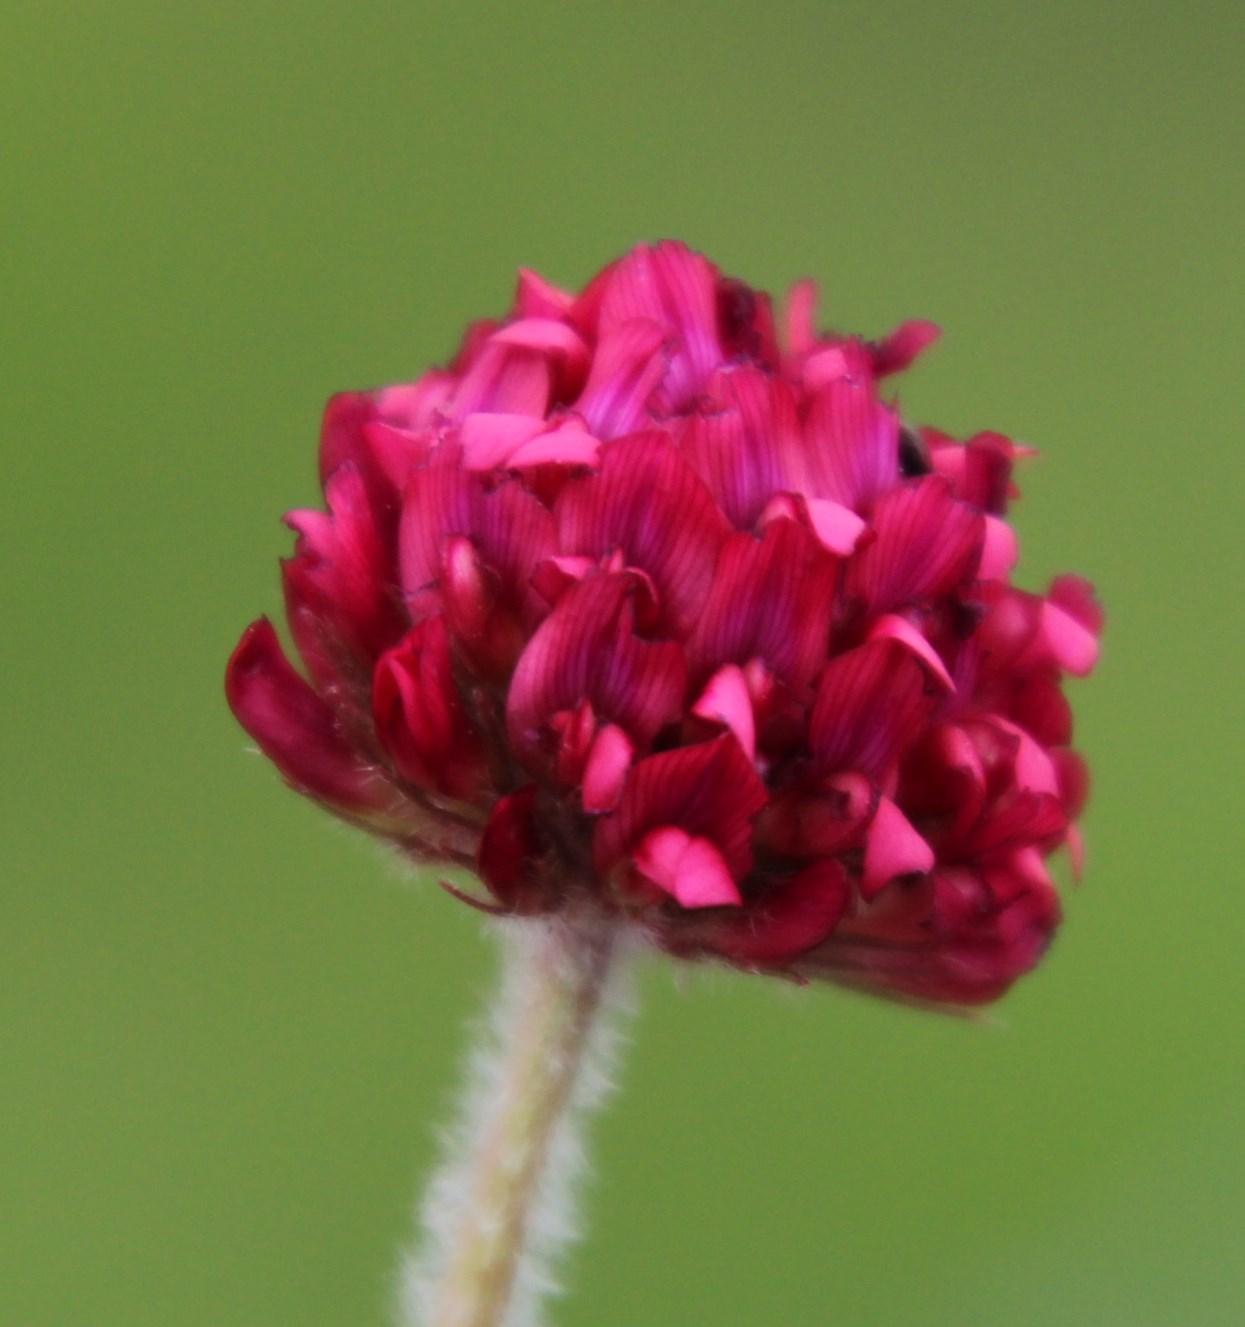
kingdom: Plantae
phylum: Tracheophyta
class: Magnoliopsida
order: Fabales
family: Fabaceae
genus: Trifolium
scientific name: Trifolium africanum
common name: Erasmus clover
